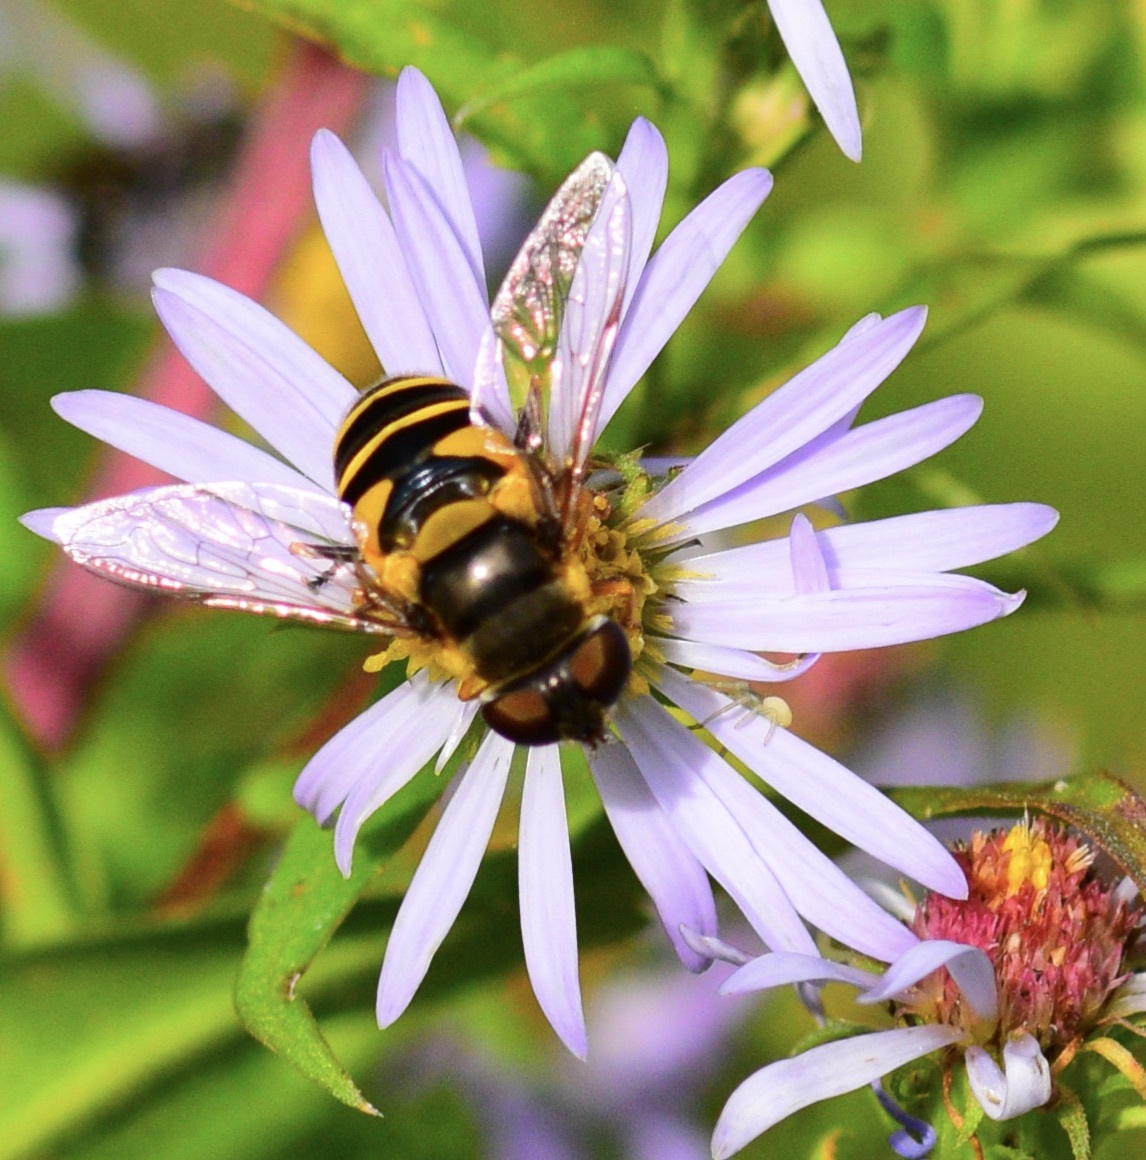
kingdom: Animalia
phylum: Arthropoda
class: Insecta
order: Diptera
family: Syrphidae
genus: Eristalis
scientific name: Eristalis transversa
